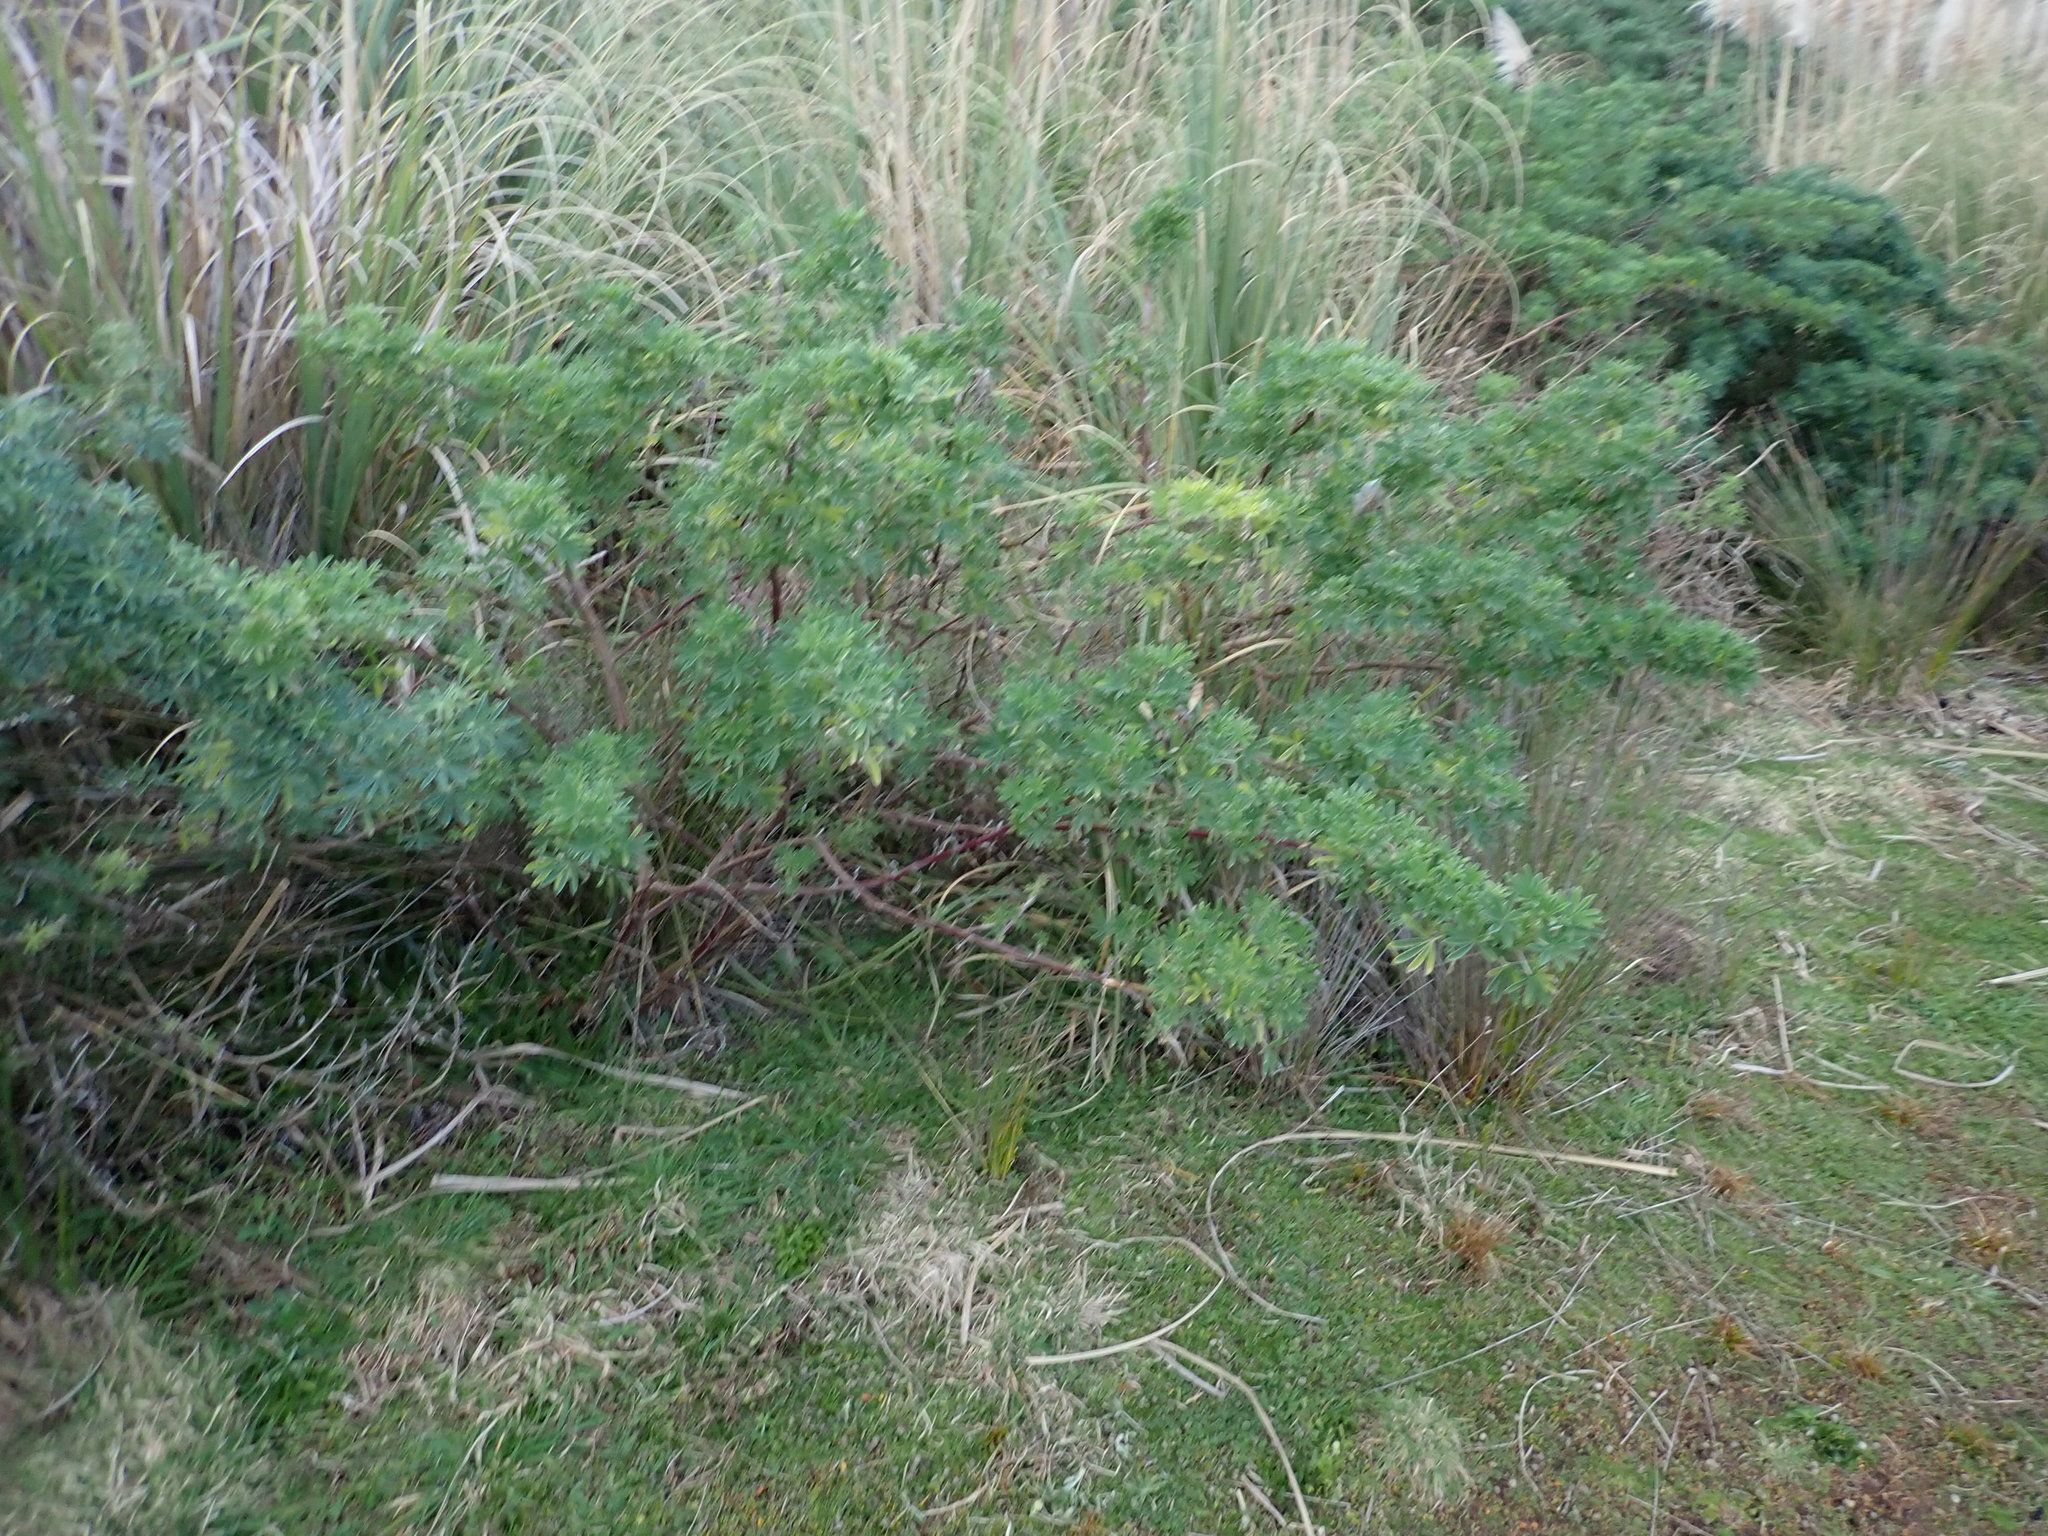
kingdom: Plantae
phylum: Tracheophyta
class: Magnoliopsida
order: Fabales
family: Fabaceae
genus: Lupinus
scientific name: Lupinus arboreus
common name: Yellow bush lupine
